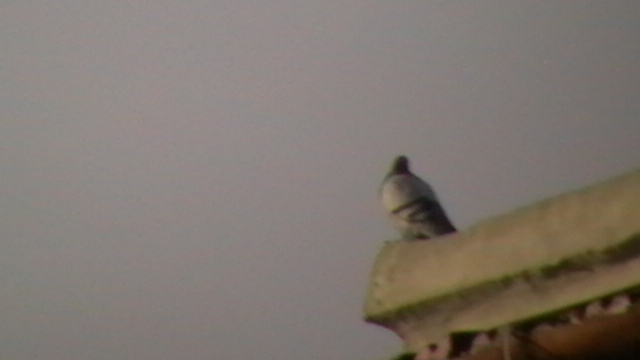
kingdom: Animalia
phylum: Chordata
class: Aves
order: Columbiformes
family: Columbidae
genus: Columba
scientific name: Columba livia
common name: Rock pigeon
